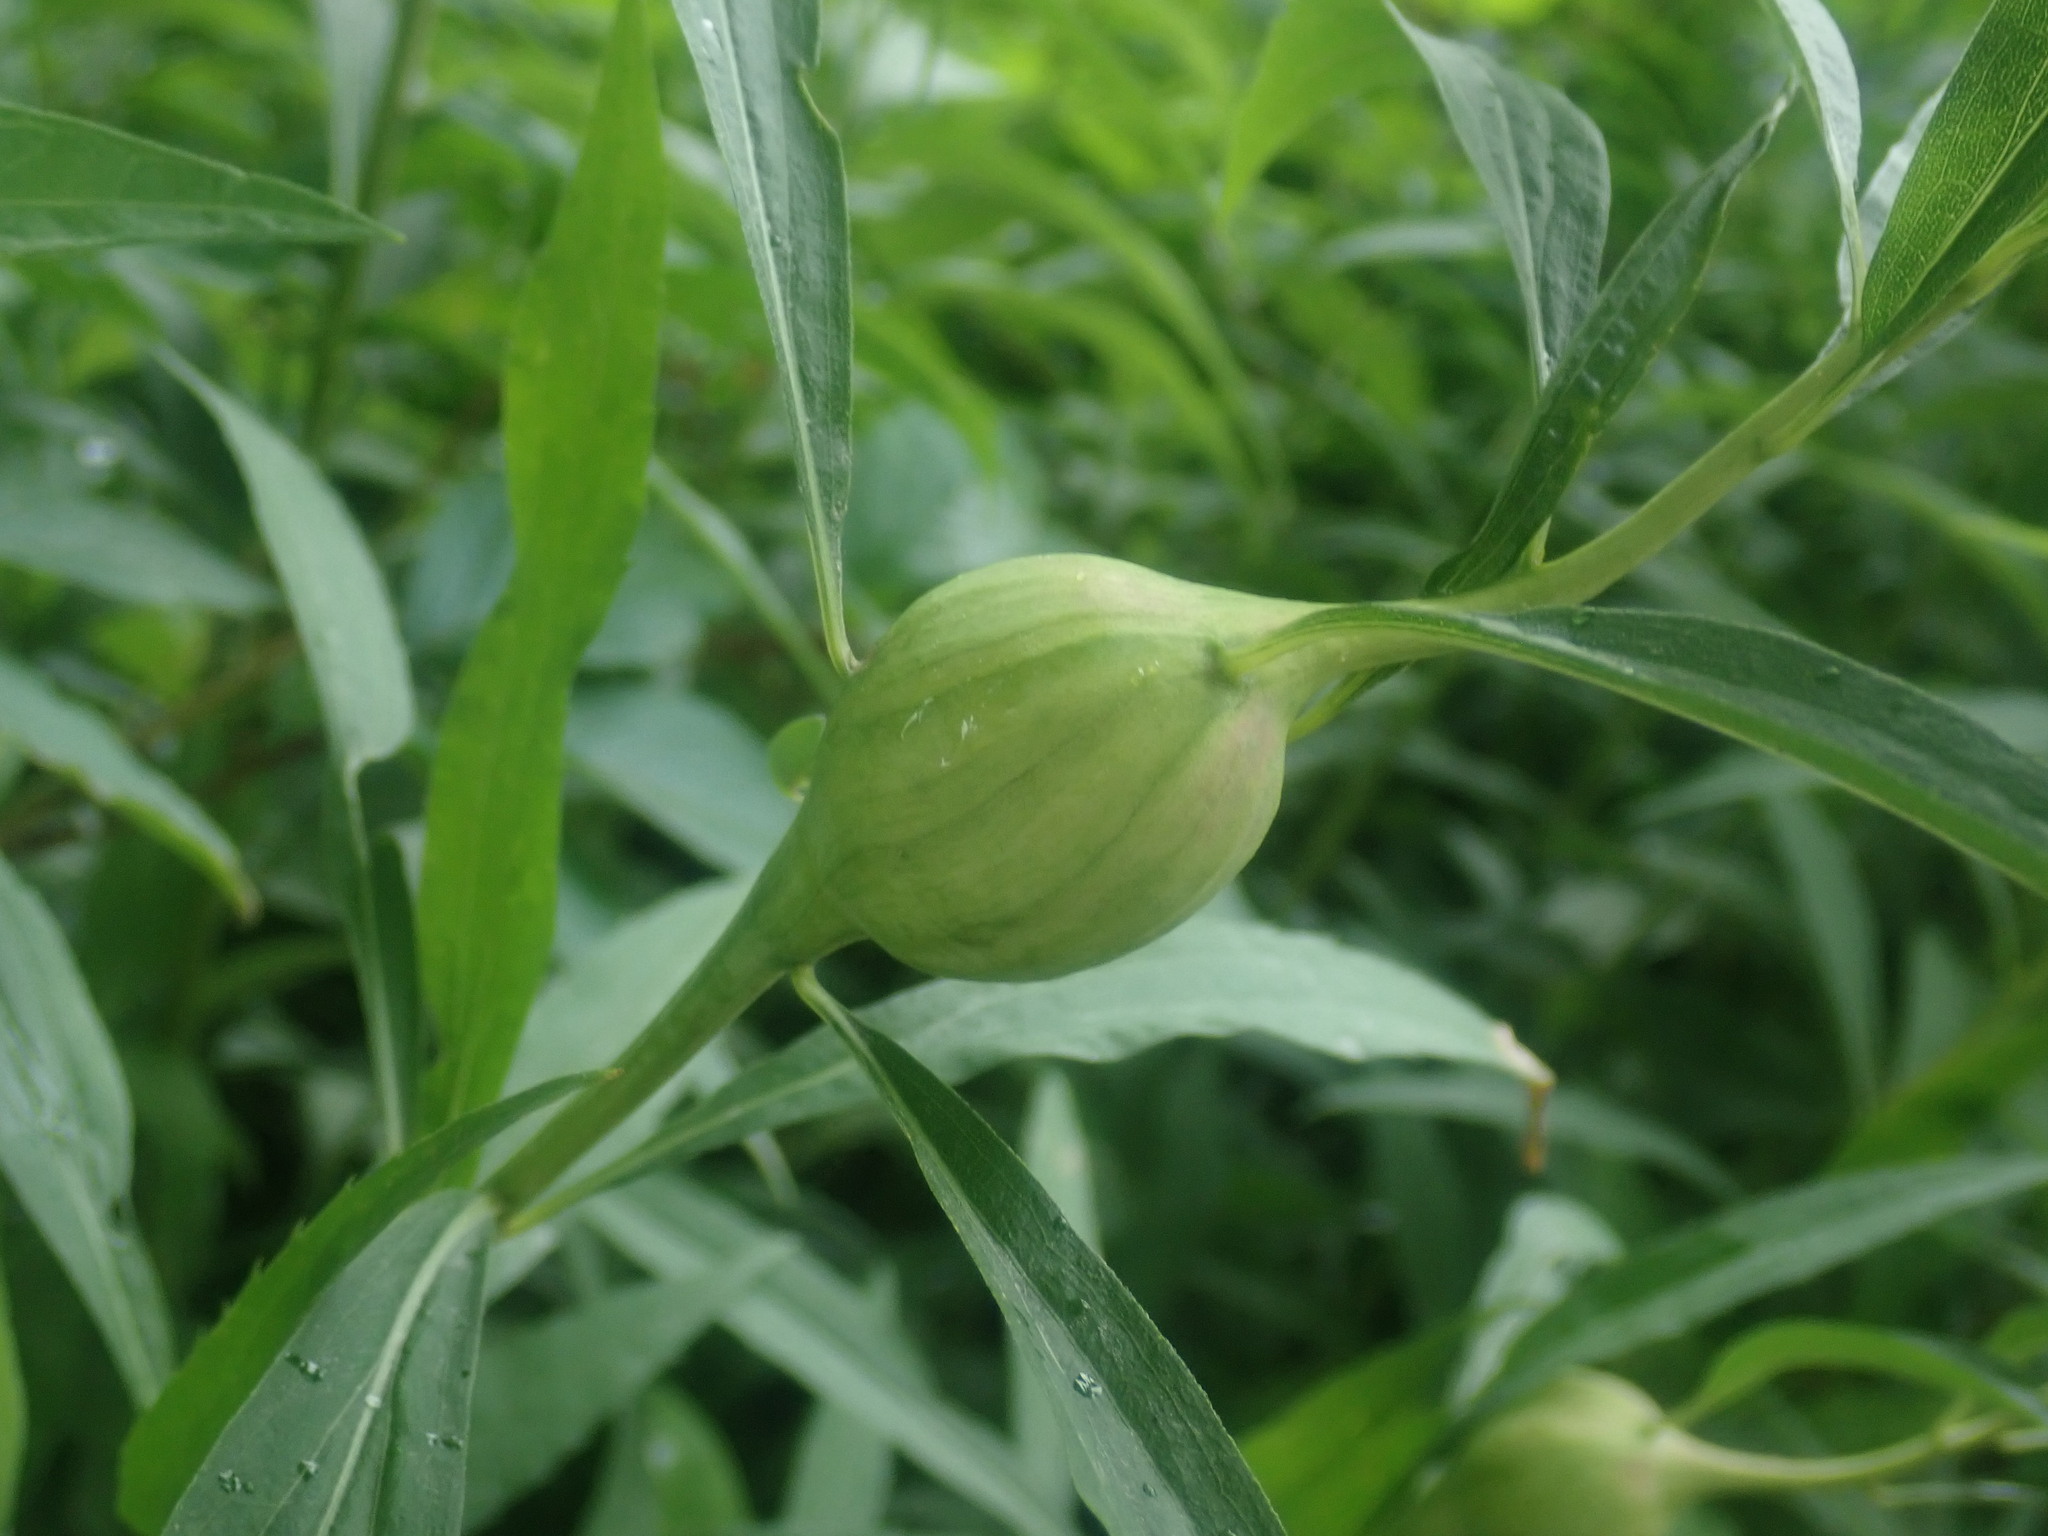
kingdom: Animalia
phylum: Arthropoda
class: Insecta
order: Diptera
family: Tephritidae
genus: Eurosta
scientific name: Eurosta solidaginis
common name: Goldenrod gall fly
